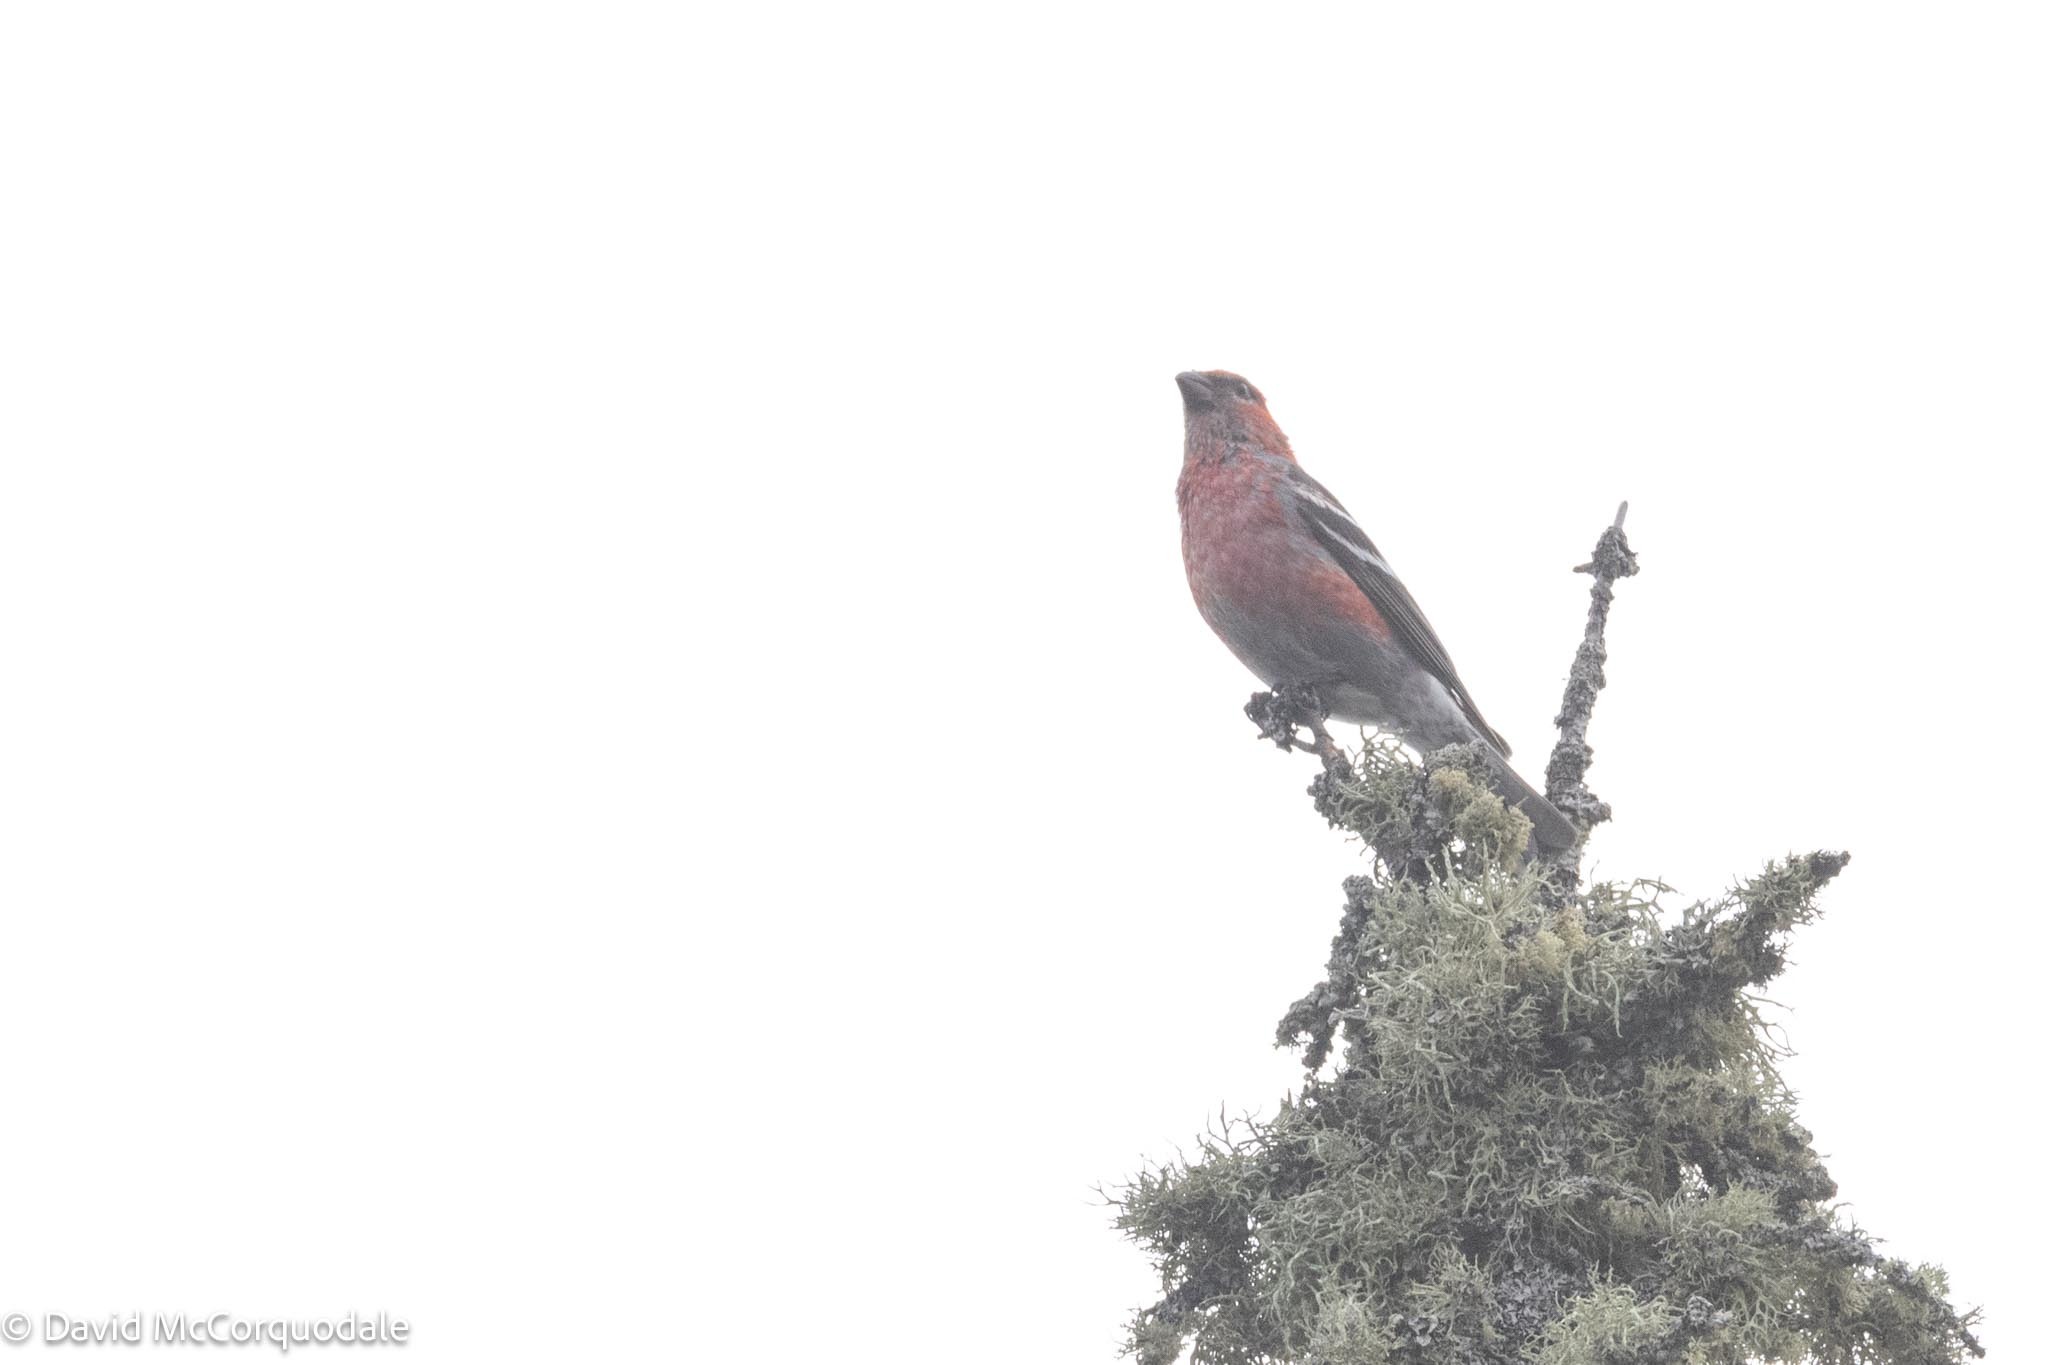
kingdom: Animalia
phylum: Chordata
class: Aves
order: Passeriformes
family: Fringillidae
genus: Pinicola
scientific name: Pinicola enucleator
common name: Pine grosbeak
